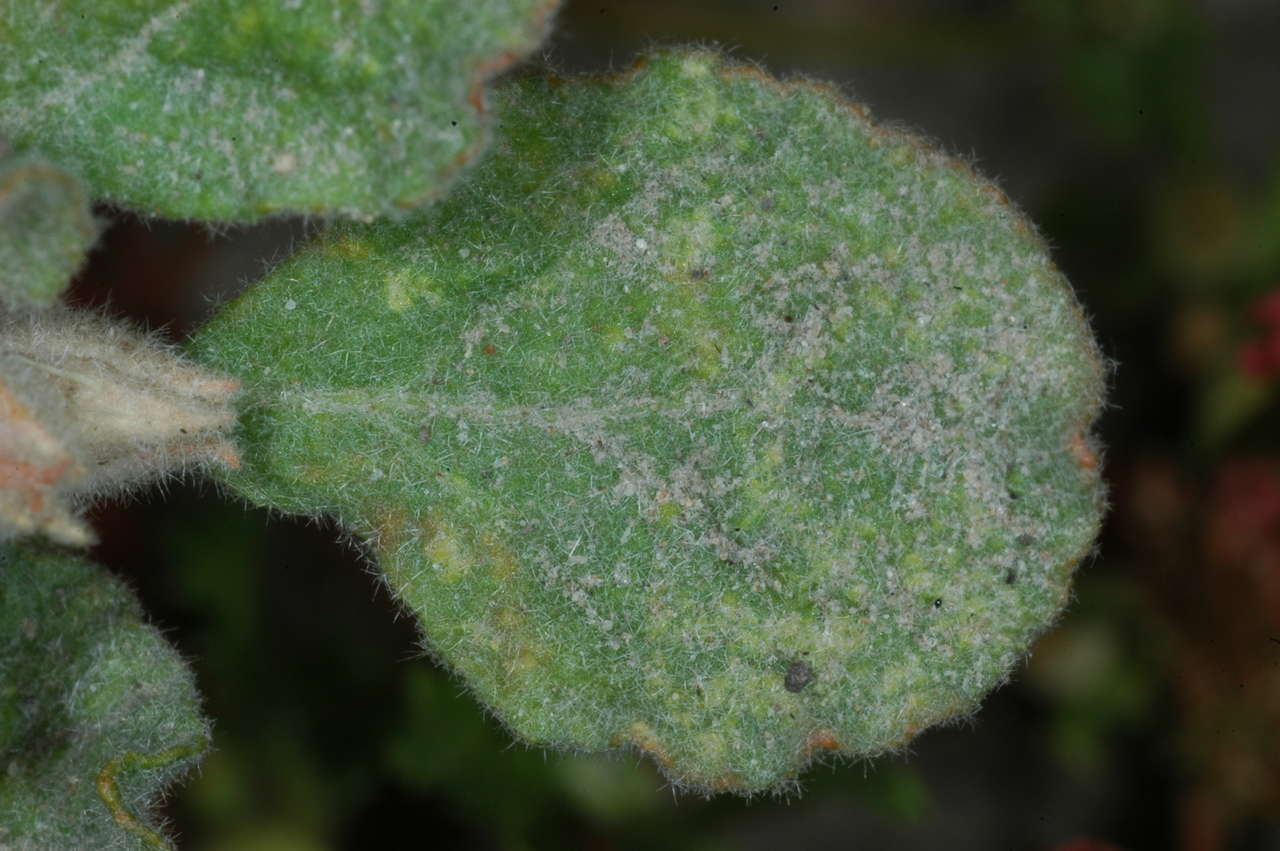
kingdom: Plantae
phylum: Tracheophyta
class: Magnoliopsida
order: Caryophyllales
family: Molluginaceae
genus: Glinus
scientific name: Glinus lotoides
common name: Lotus sweetjuice
